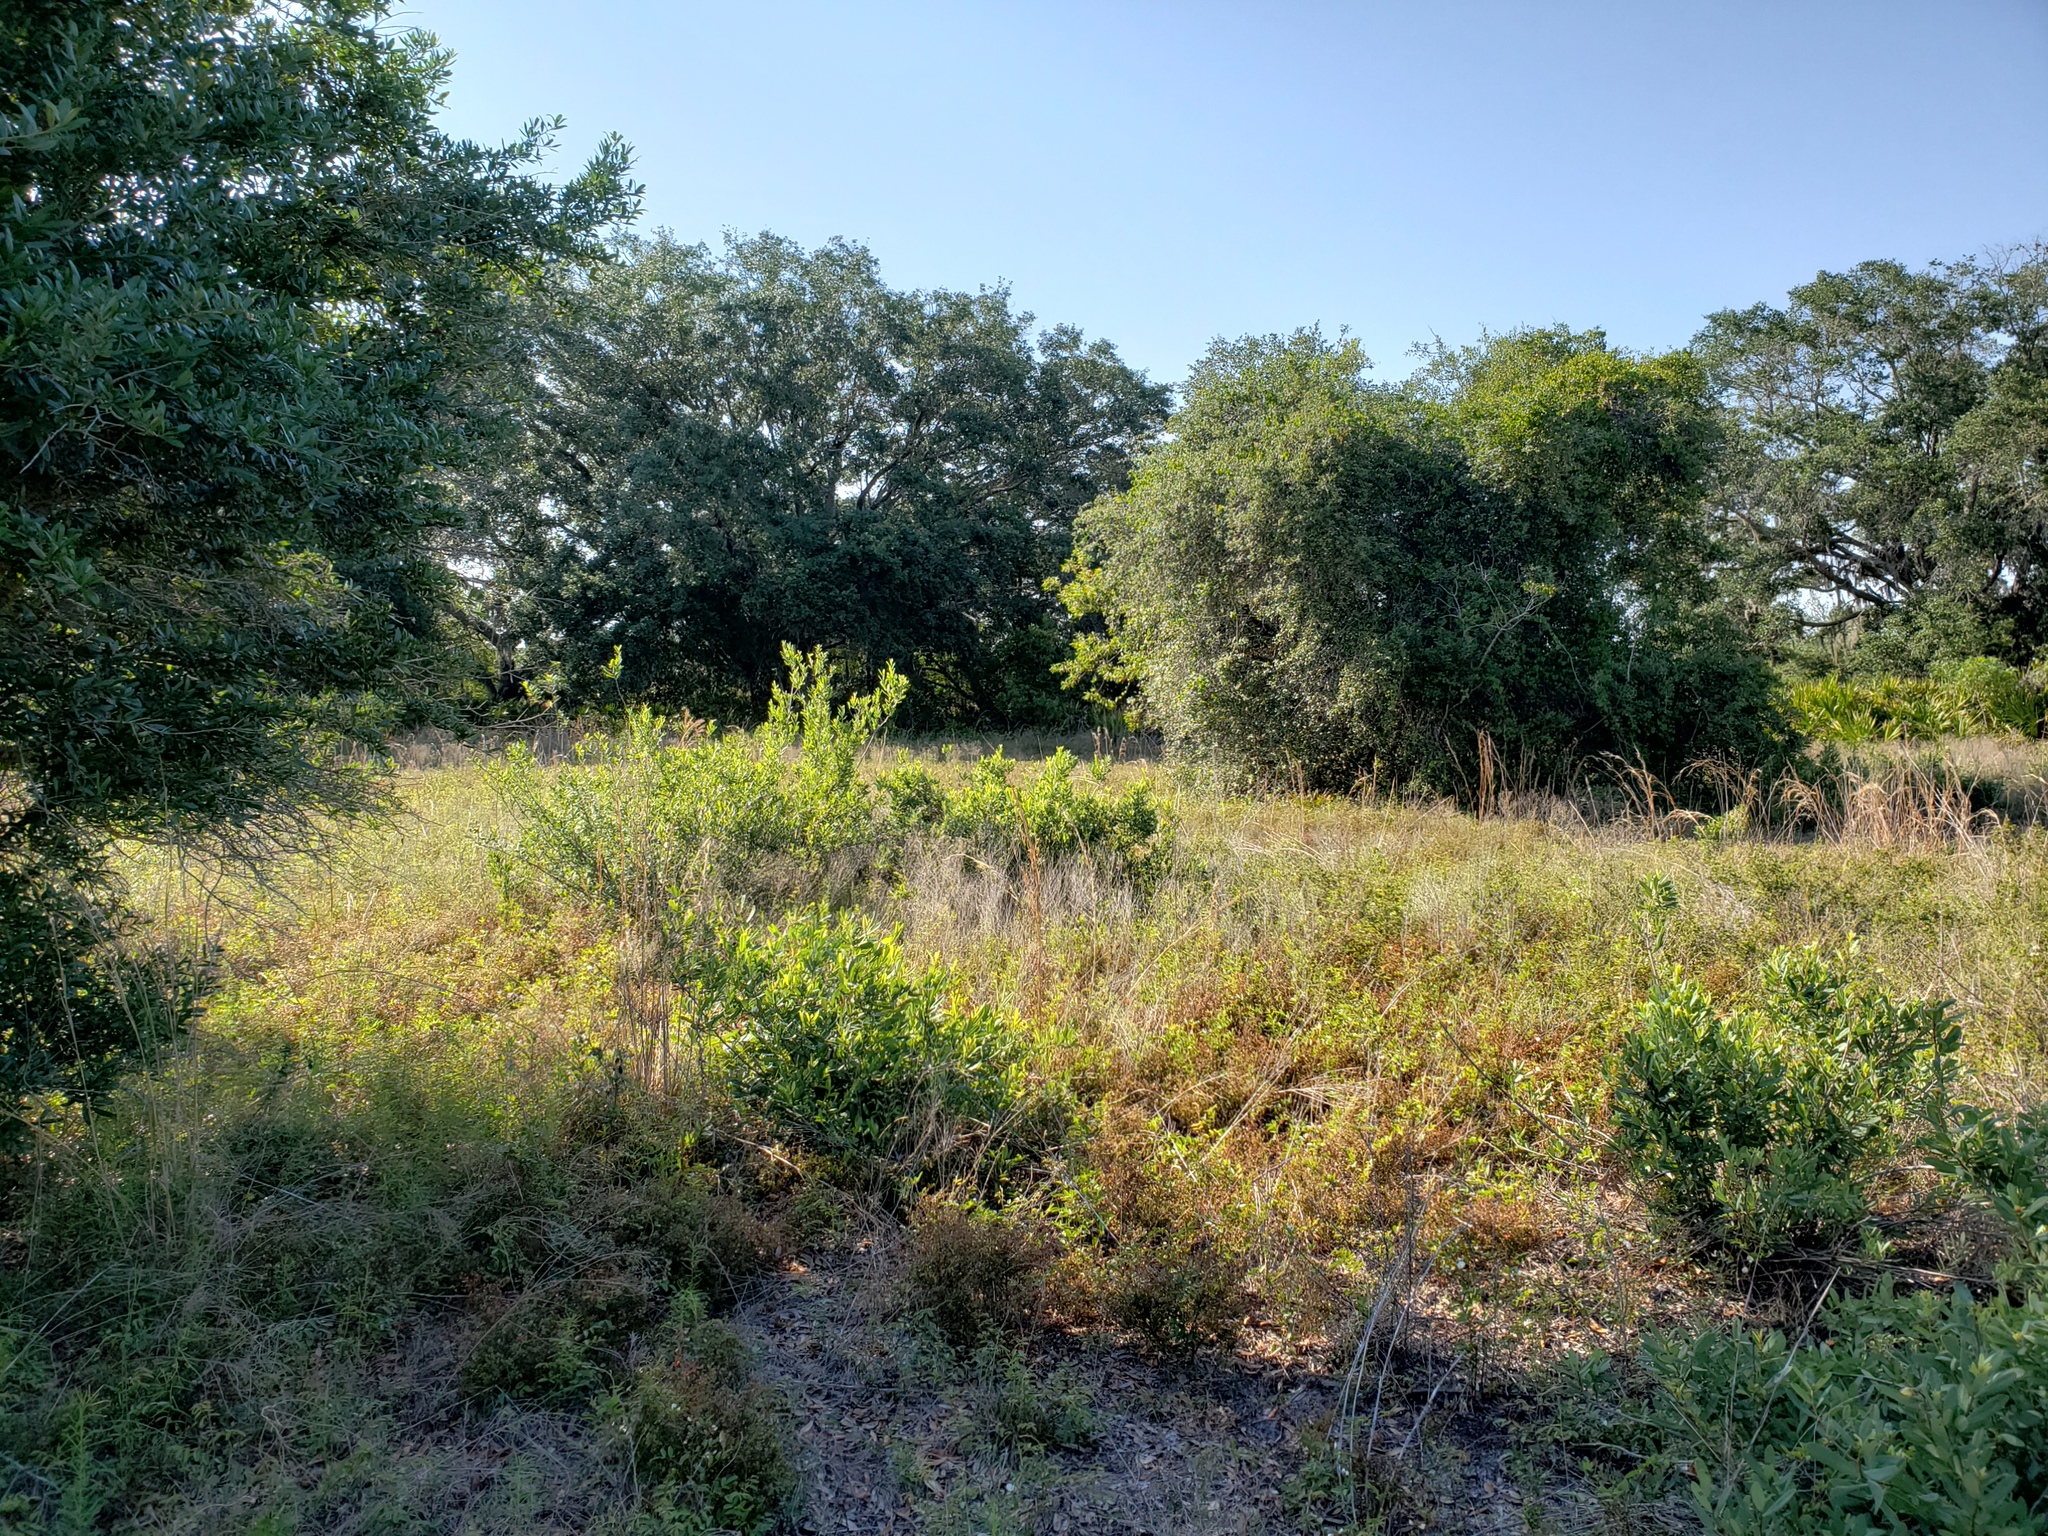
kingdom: Animalia
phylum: Arthropoda
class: Insecta
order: Orthoptera
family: Tettigoniidae
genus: Belocephalus
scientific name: Belocephalus subapterus
